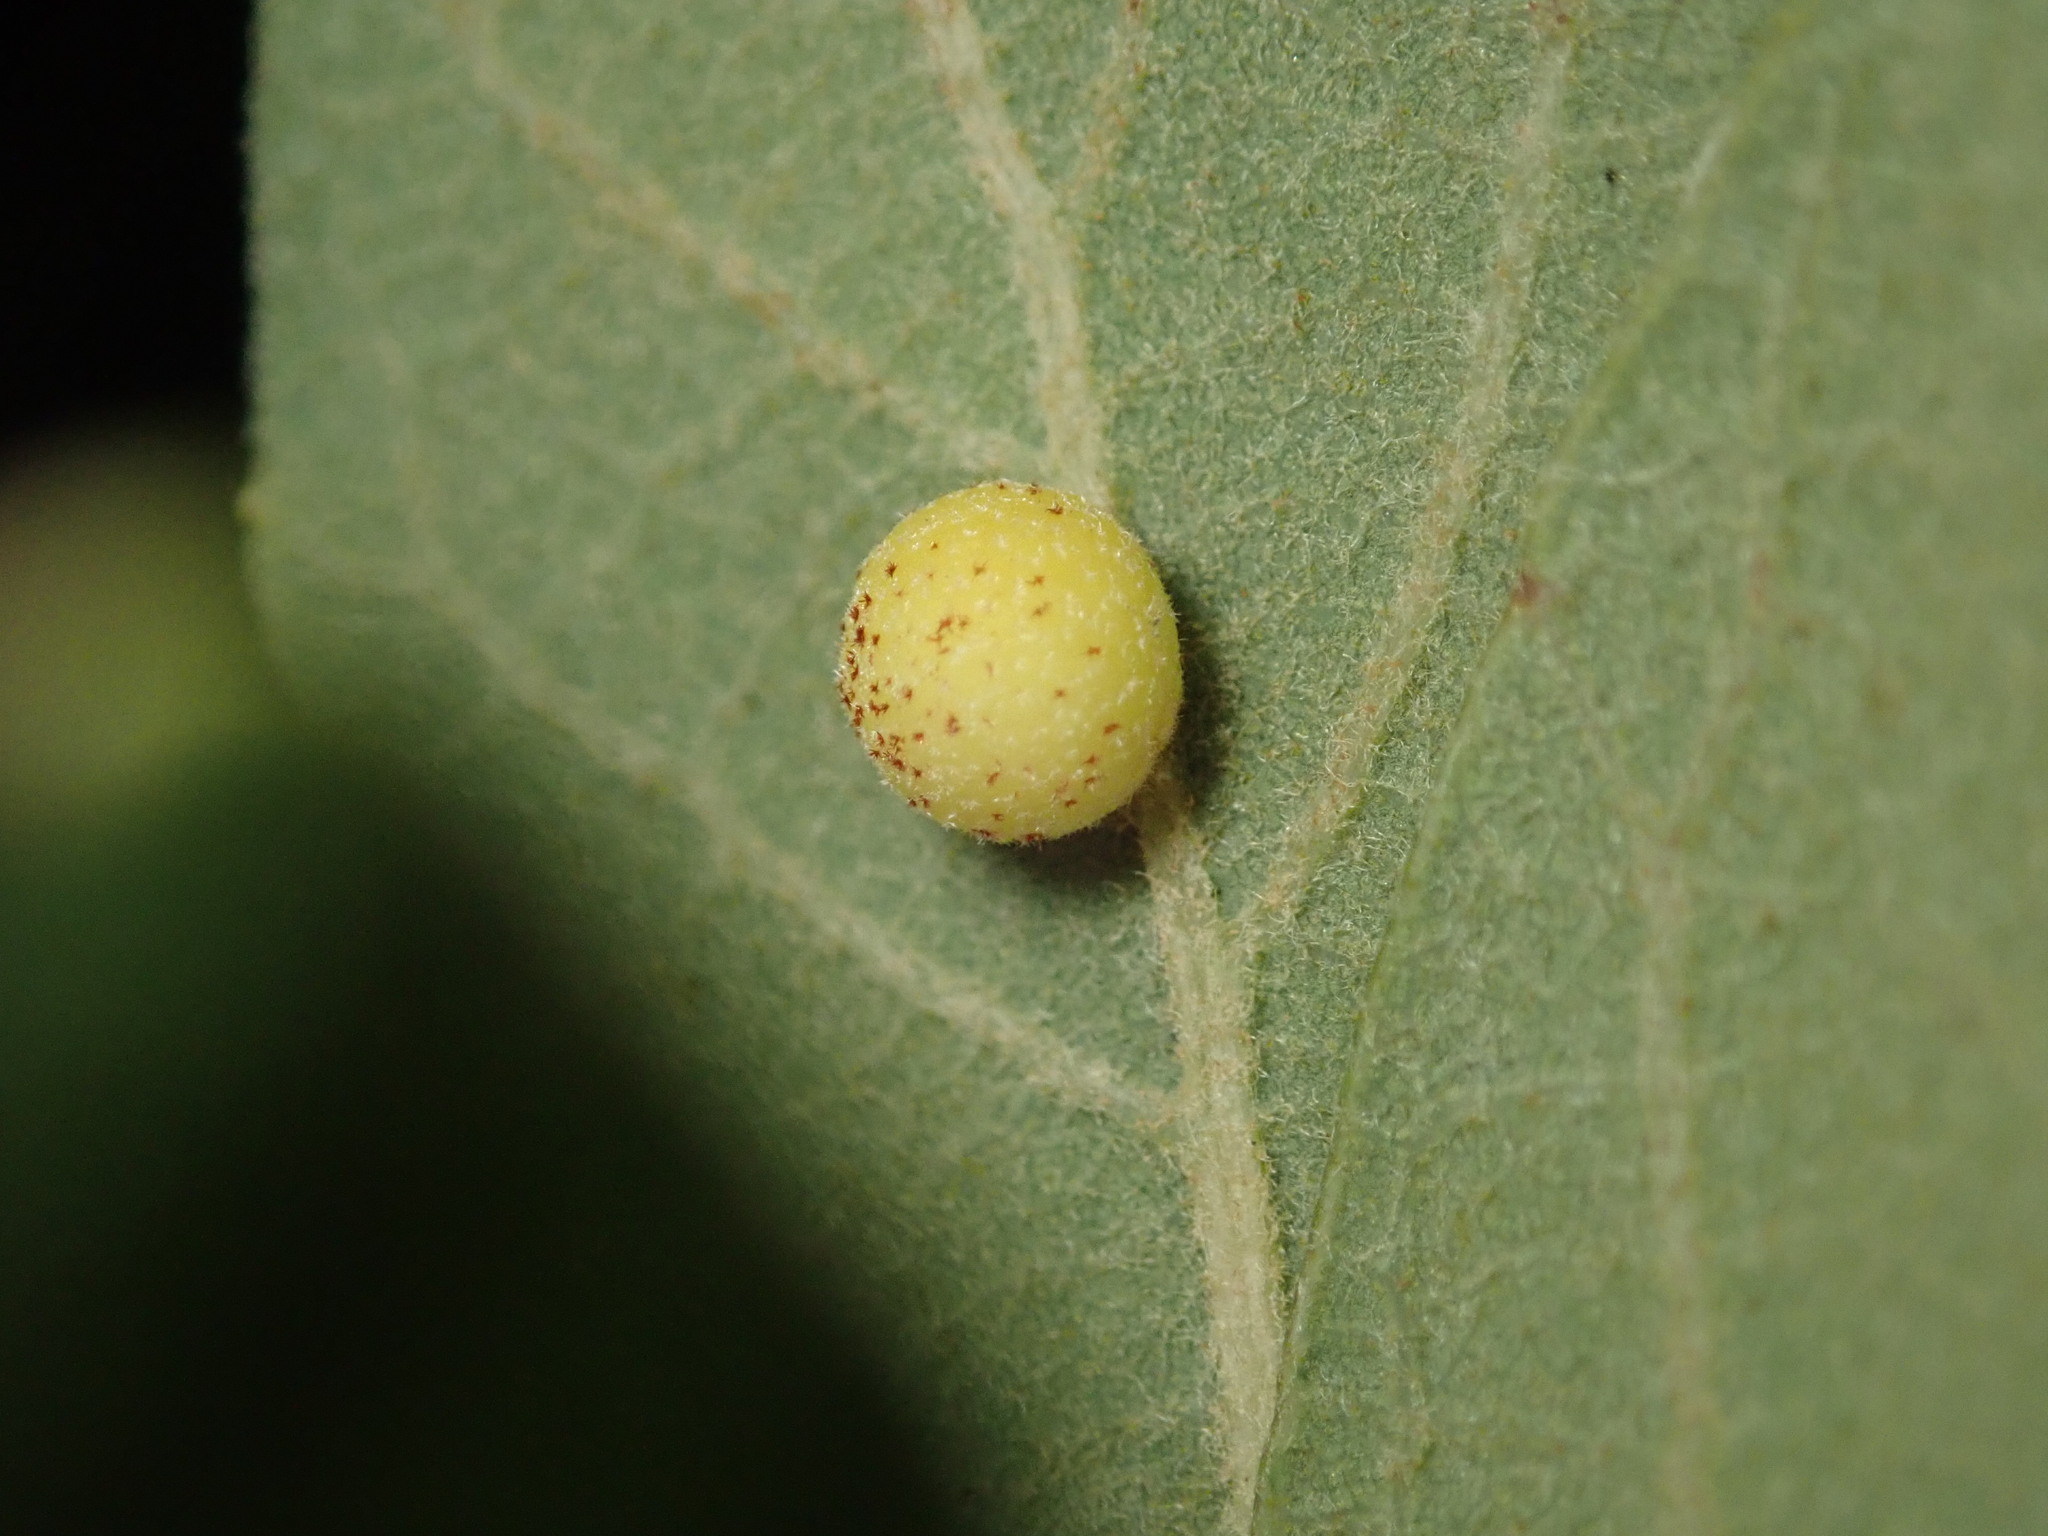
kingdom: Animalia
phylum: Arthropoda
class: Insecta
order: Hymenoptera
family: Cynipidae
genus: Cynips
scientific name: Cynips Antron tomkursari
